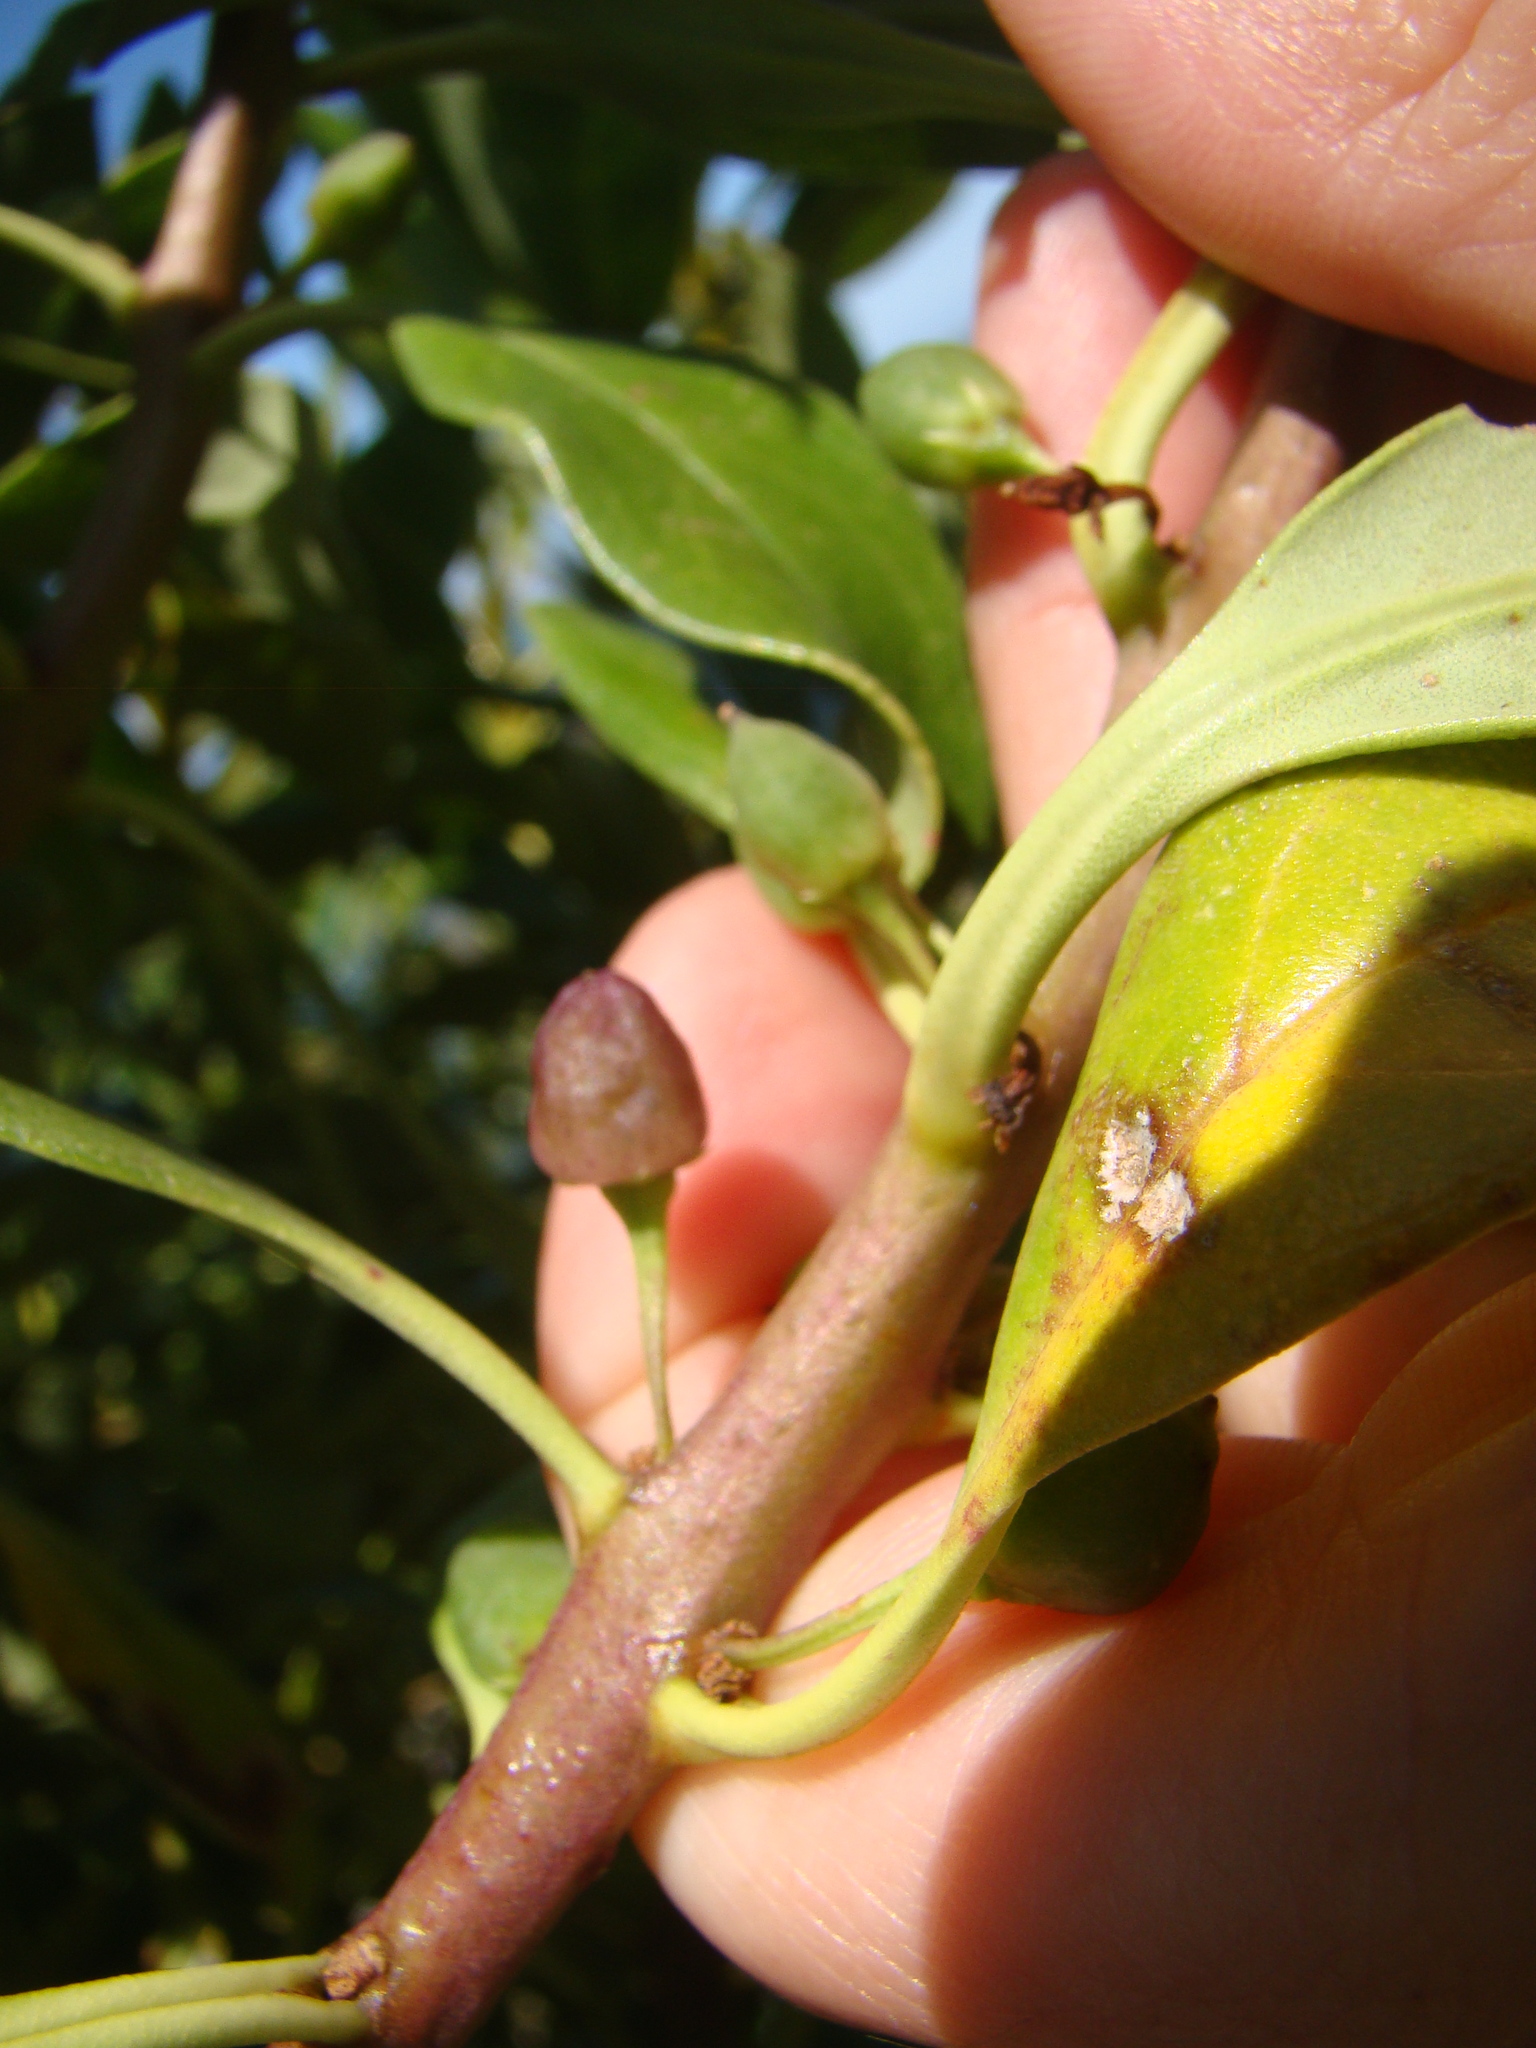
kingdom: Plantae
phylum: Tracheophyta
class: Magnoliopsida
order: Lamiales
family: Scrophulariaceae
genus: Myoporum
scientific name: Myoporum laetum
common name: Ngaio tree
